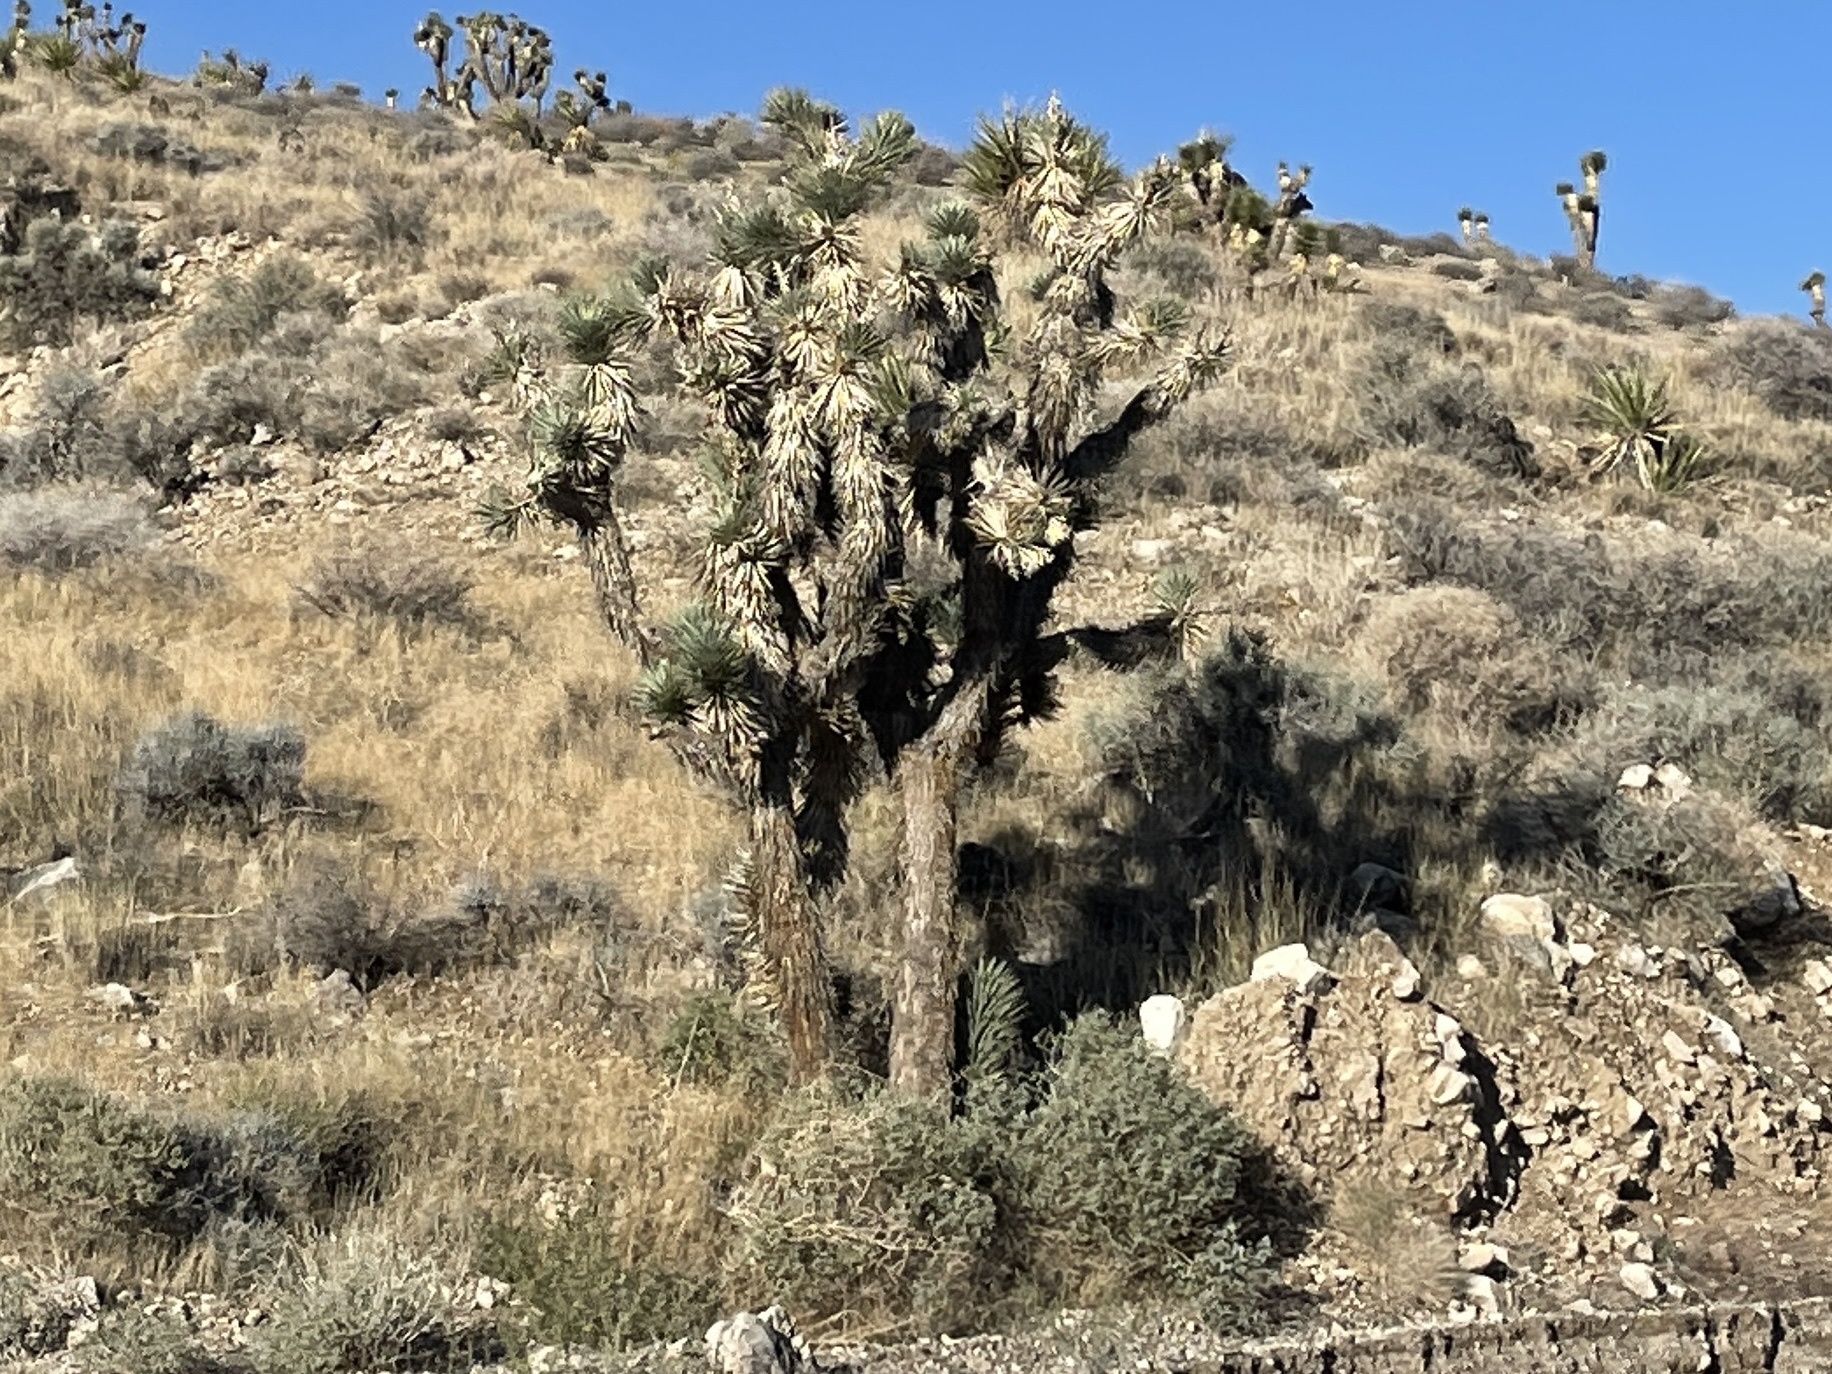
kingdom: Plantae
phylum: Tracheophyta
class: Liliopsida
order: Asparagales
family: Asparagaceae
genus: Yucca
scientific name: Yucca brevifolia
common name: Joshua tree
